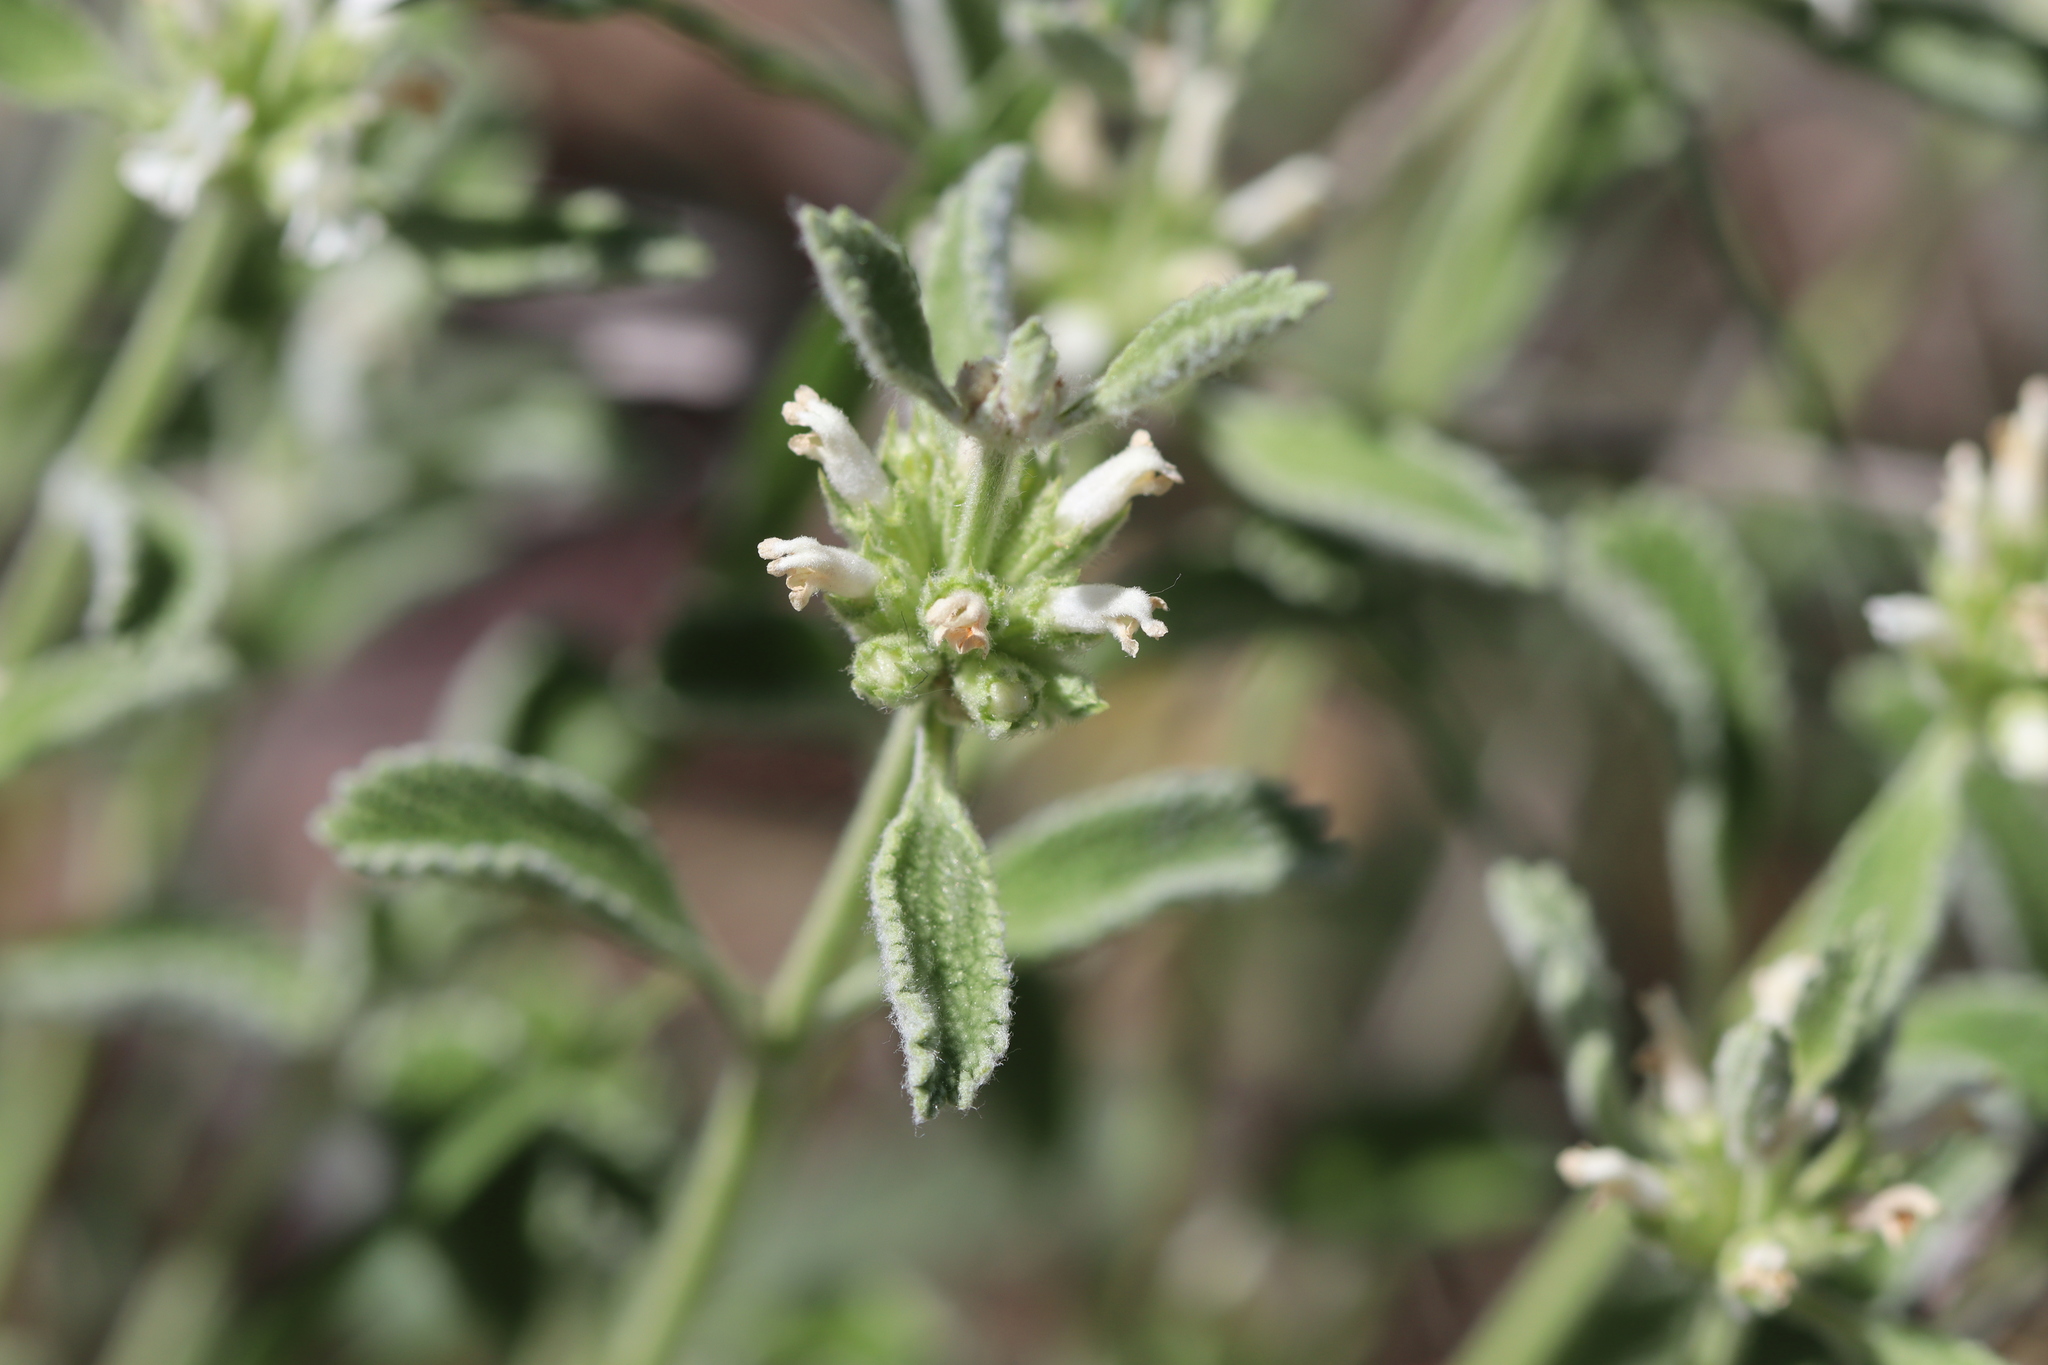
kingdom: Plantae
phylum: Tracheophyta
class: Magnoliopsida
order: Lamiales
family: Lamiaceae
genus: Marrubium
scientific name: Marrubium parviflorum
